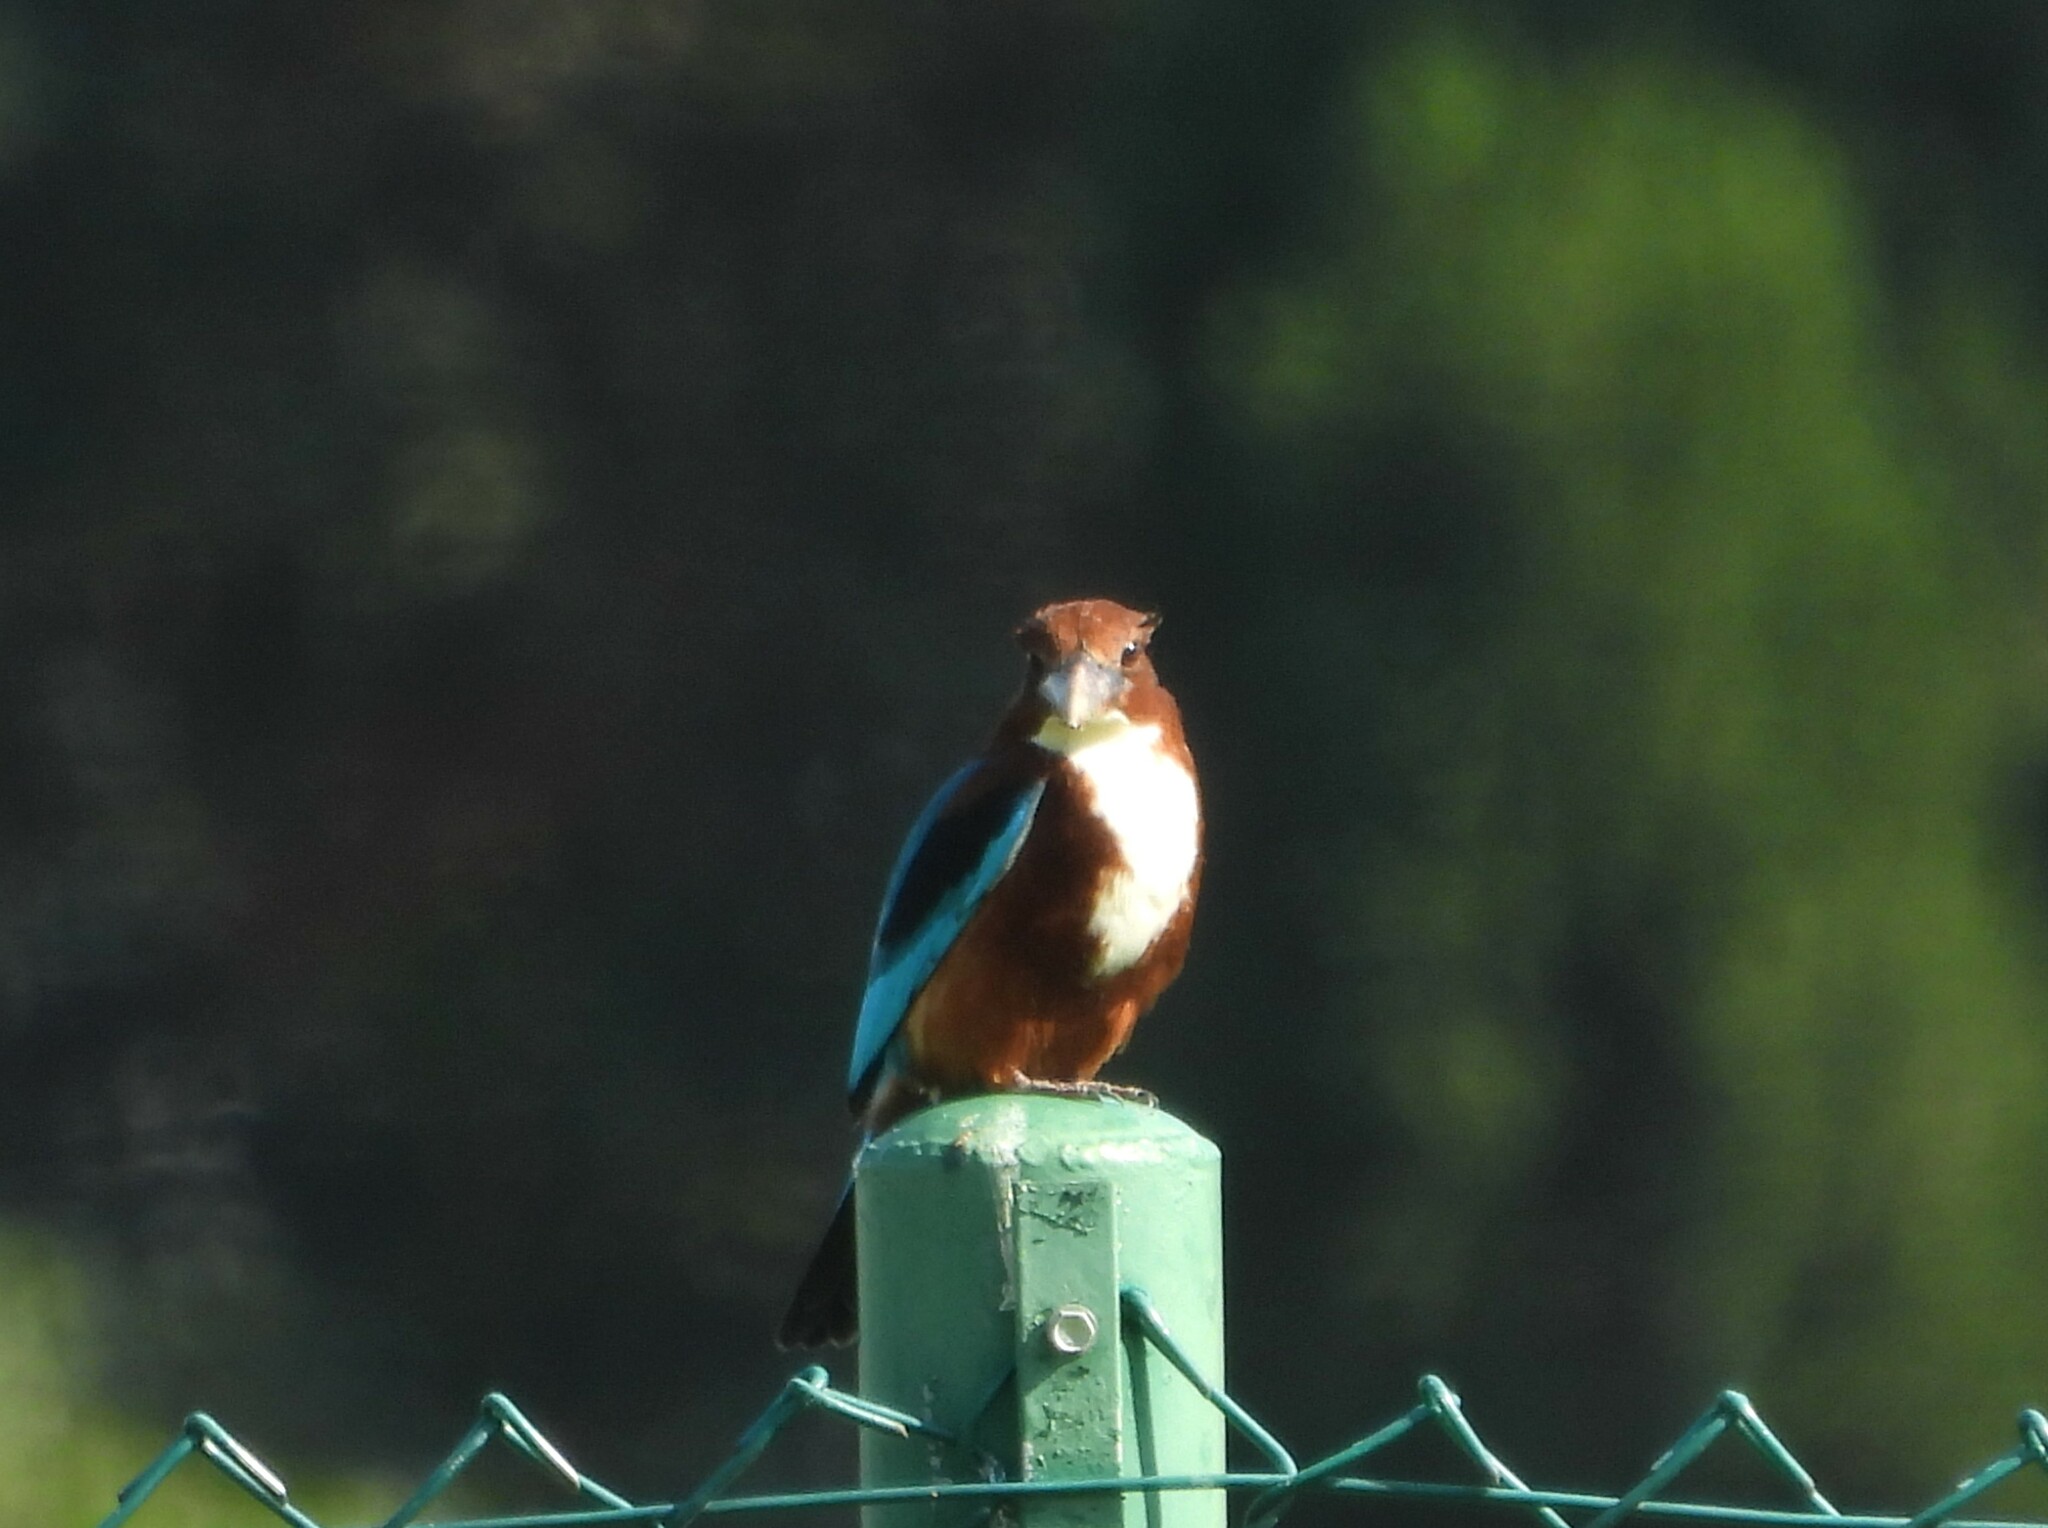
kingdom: Animalia
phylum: Chordata
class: Aves
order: Coraciiformes
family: Alcedinidae
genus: Halcyon
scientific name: Halcyon smyrnensis
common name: White-throated kingfisher
